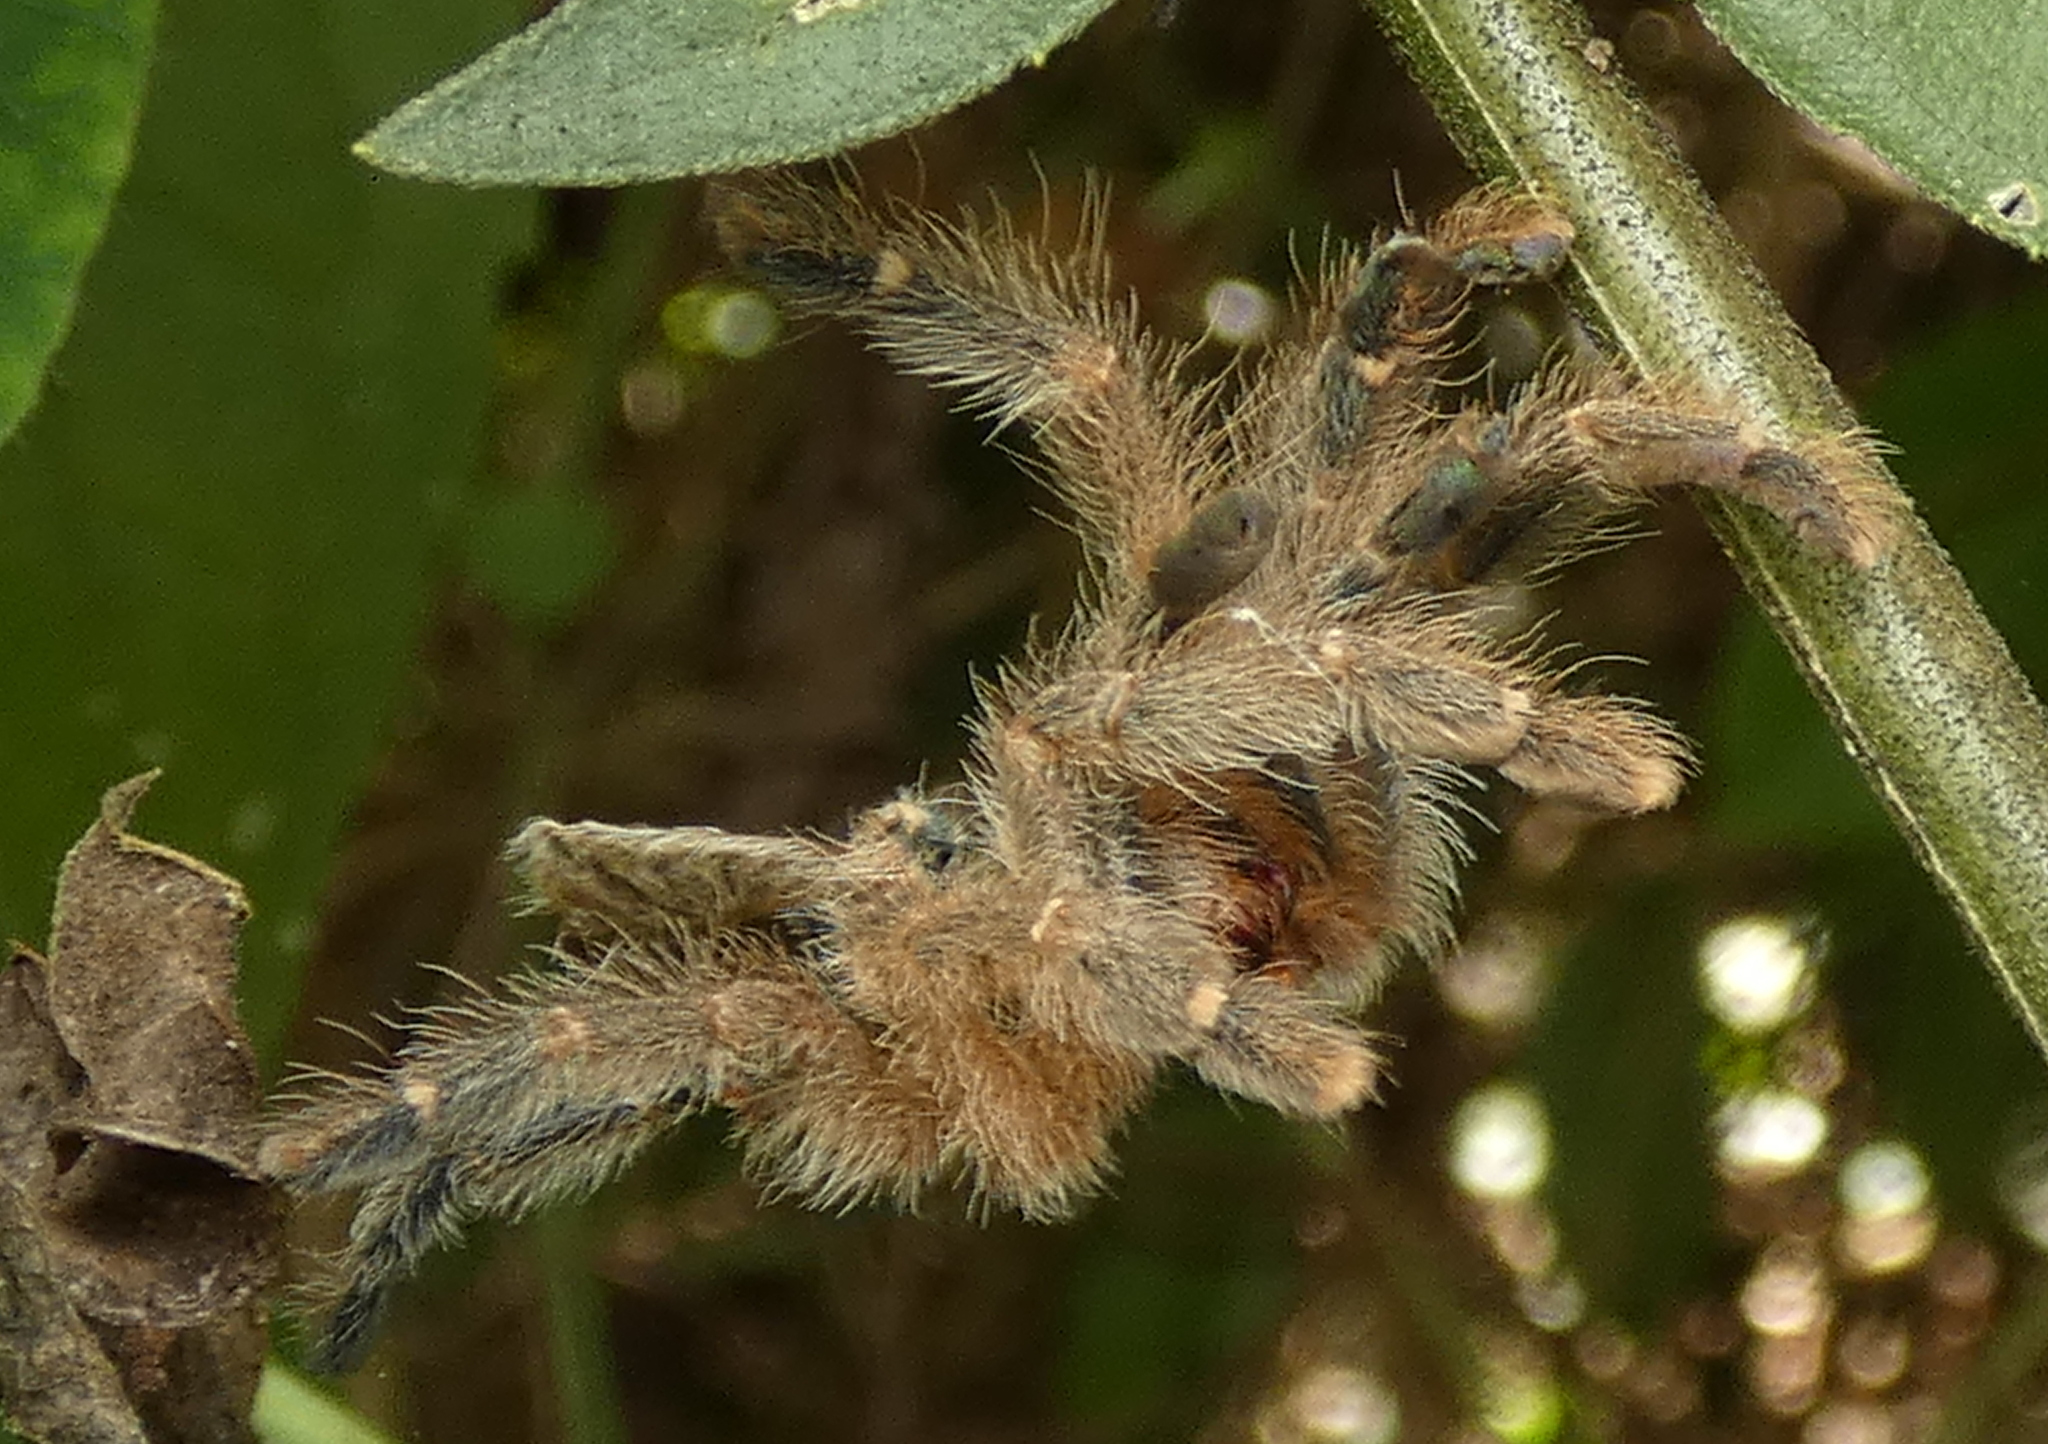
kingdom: Animalia
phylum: Arthropoda
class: Arachnida
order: Araneae
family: Theraphosidae
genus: Iridopelma
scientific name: Iridopelma hirsutum
